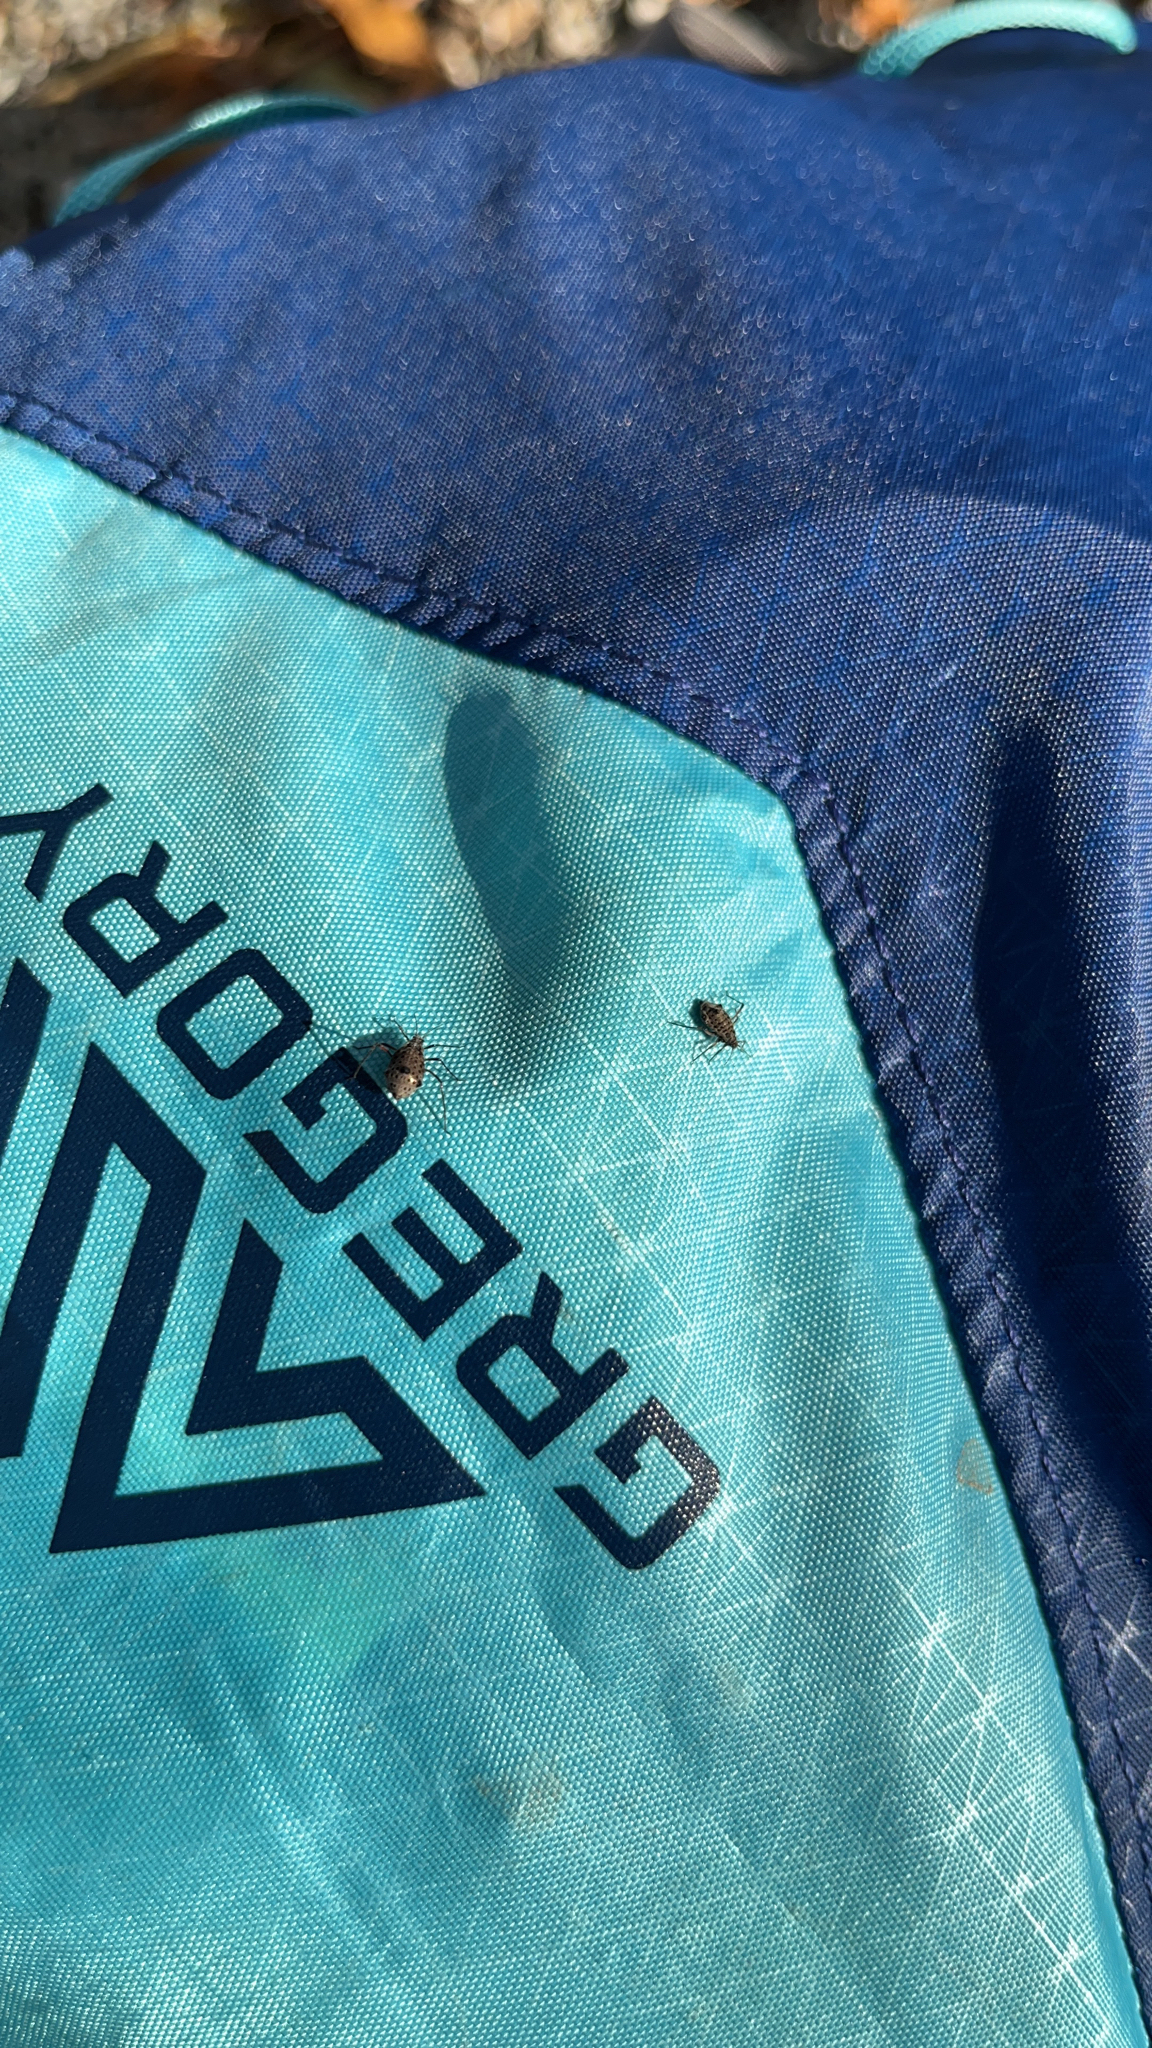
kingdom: Animalia
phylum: Arthropoda
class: Insecta
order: Hemiptera
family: Aphididae
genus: Tuberolachnus
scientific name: Tuberolachnus salignus
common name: Giant willow aphid
